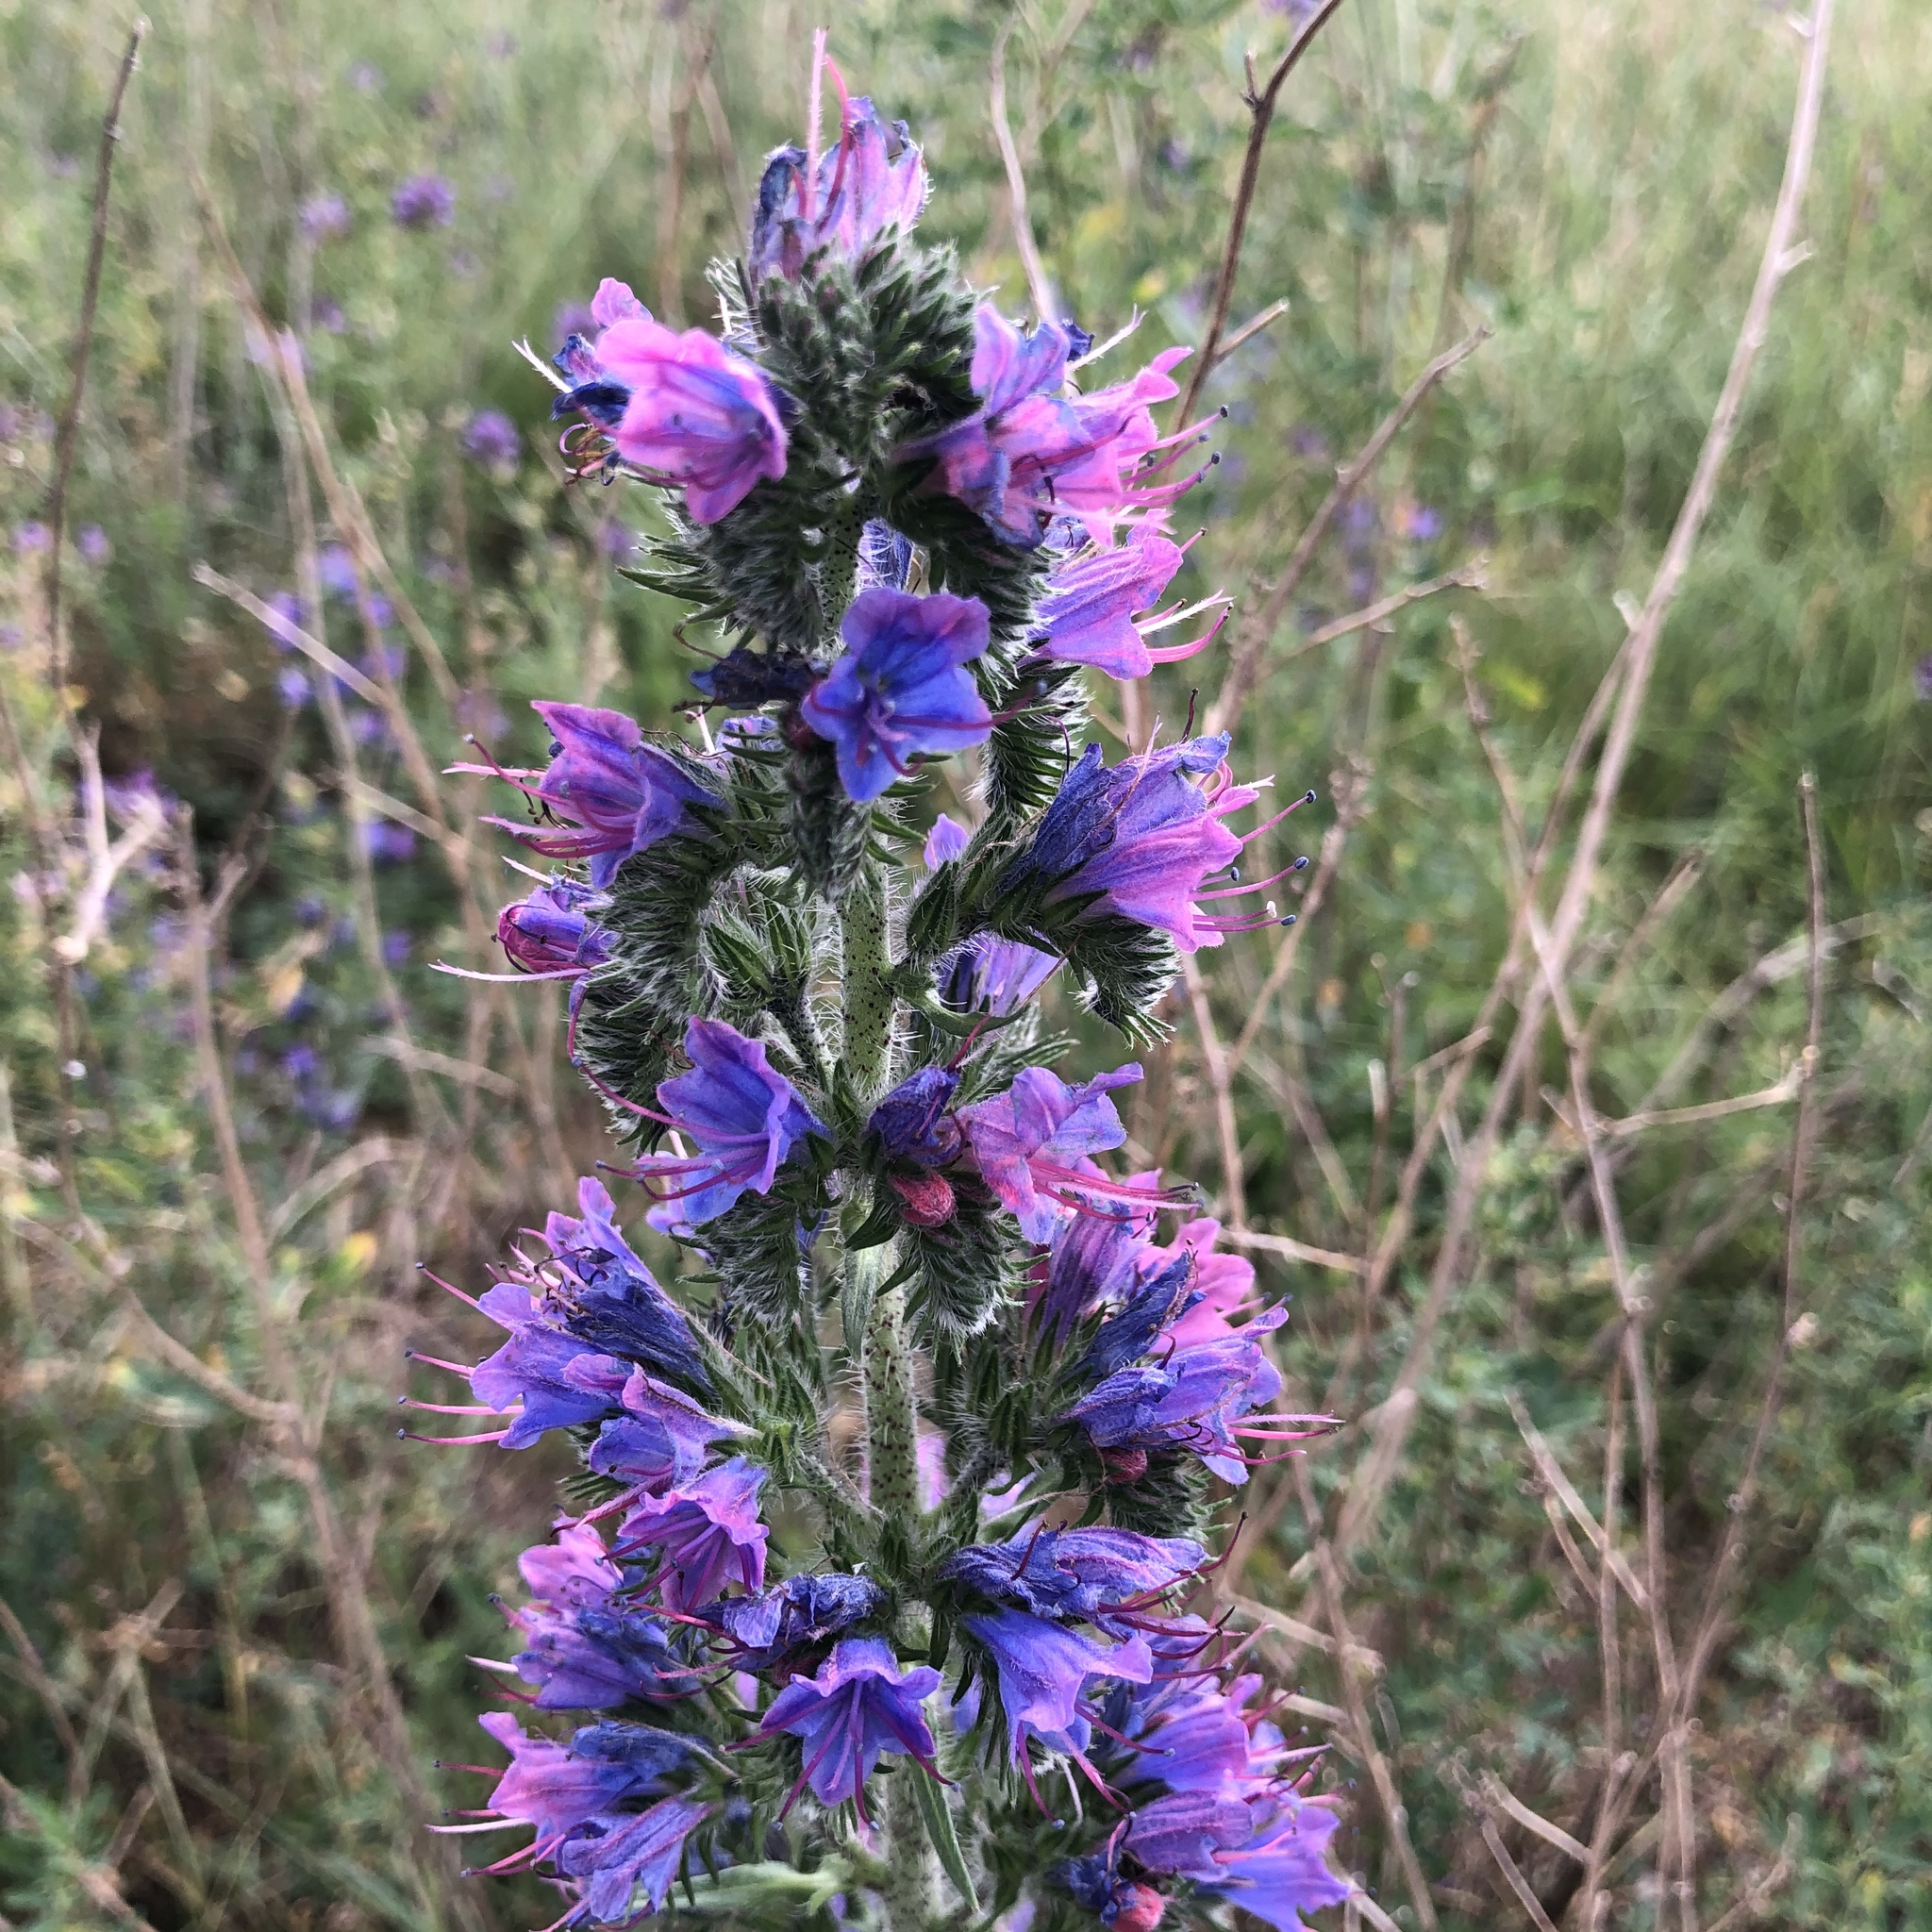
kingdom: Plantae
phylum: Tracheophyta
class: Magnoliopsida
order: Boraginales
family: Boraginaceae
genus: Echium
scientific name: Echium vulgare
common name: Common viper's bugloss
